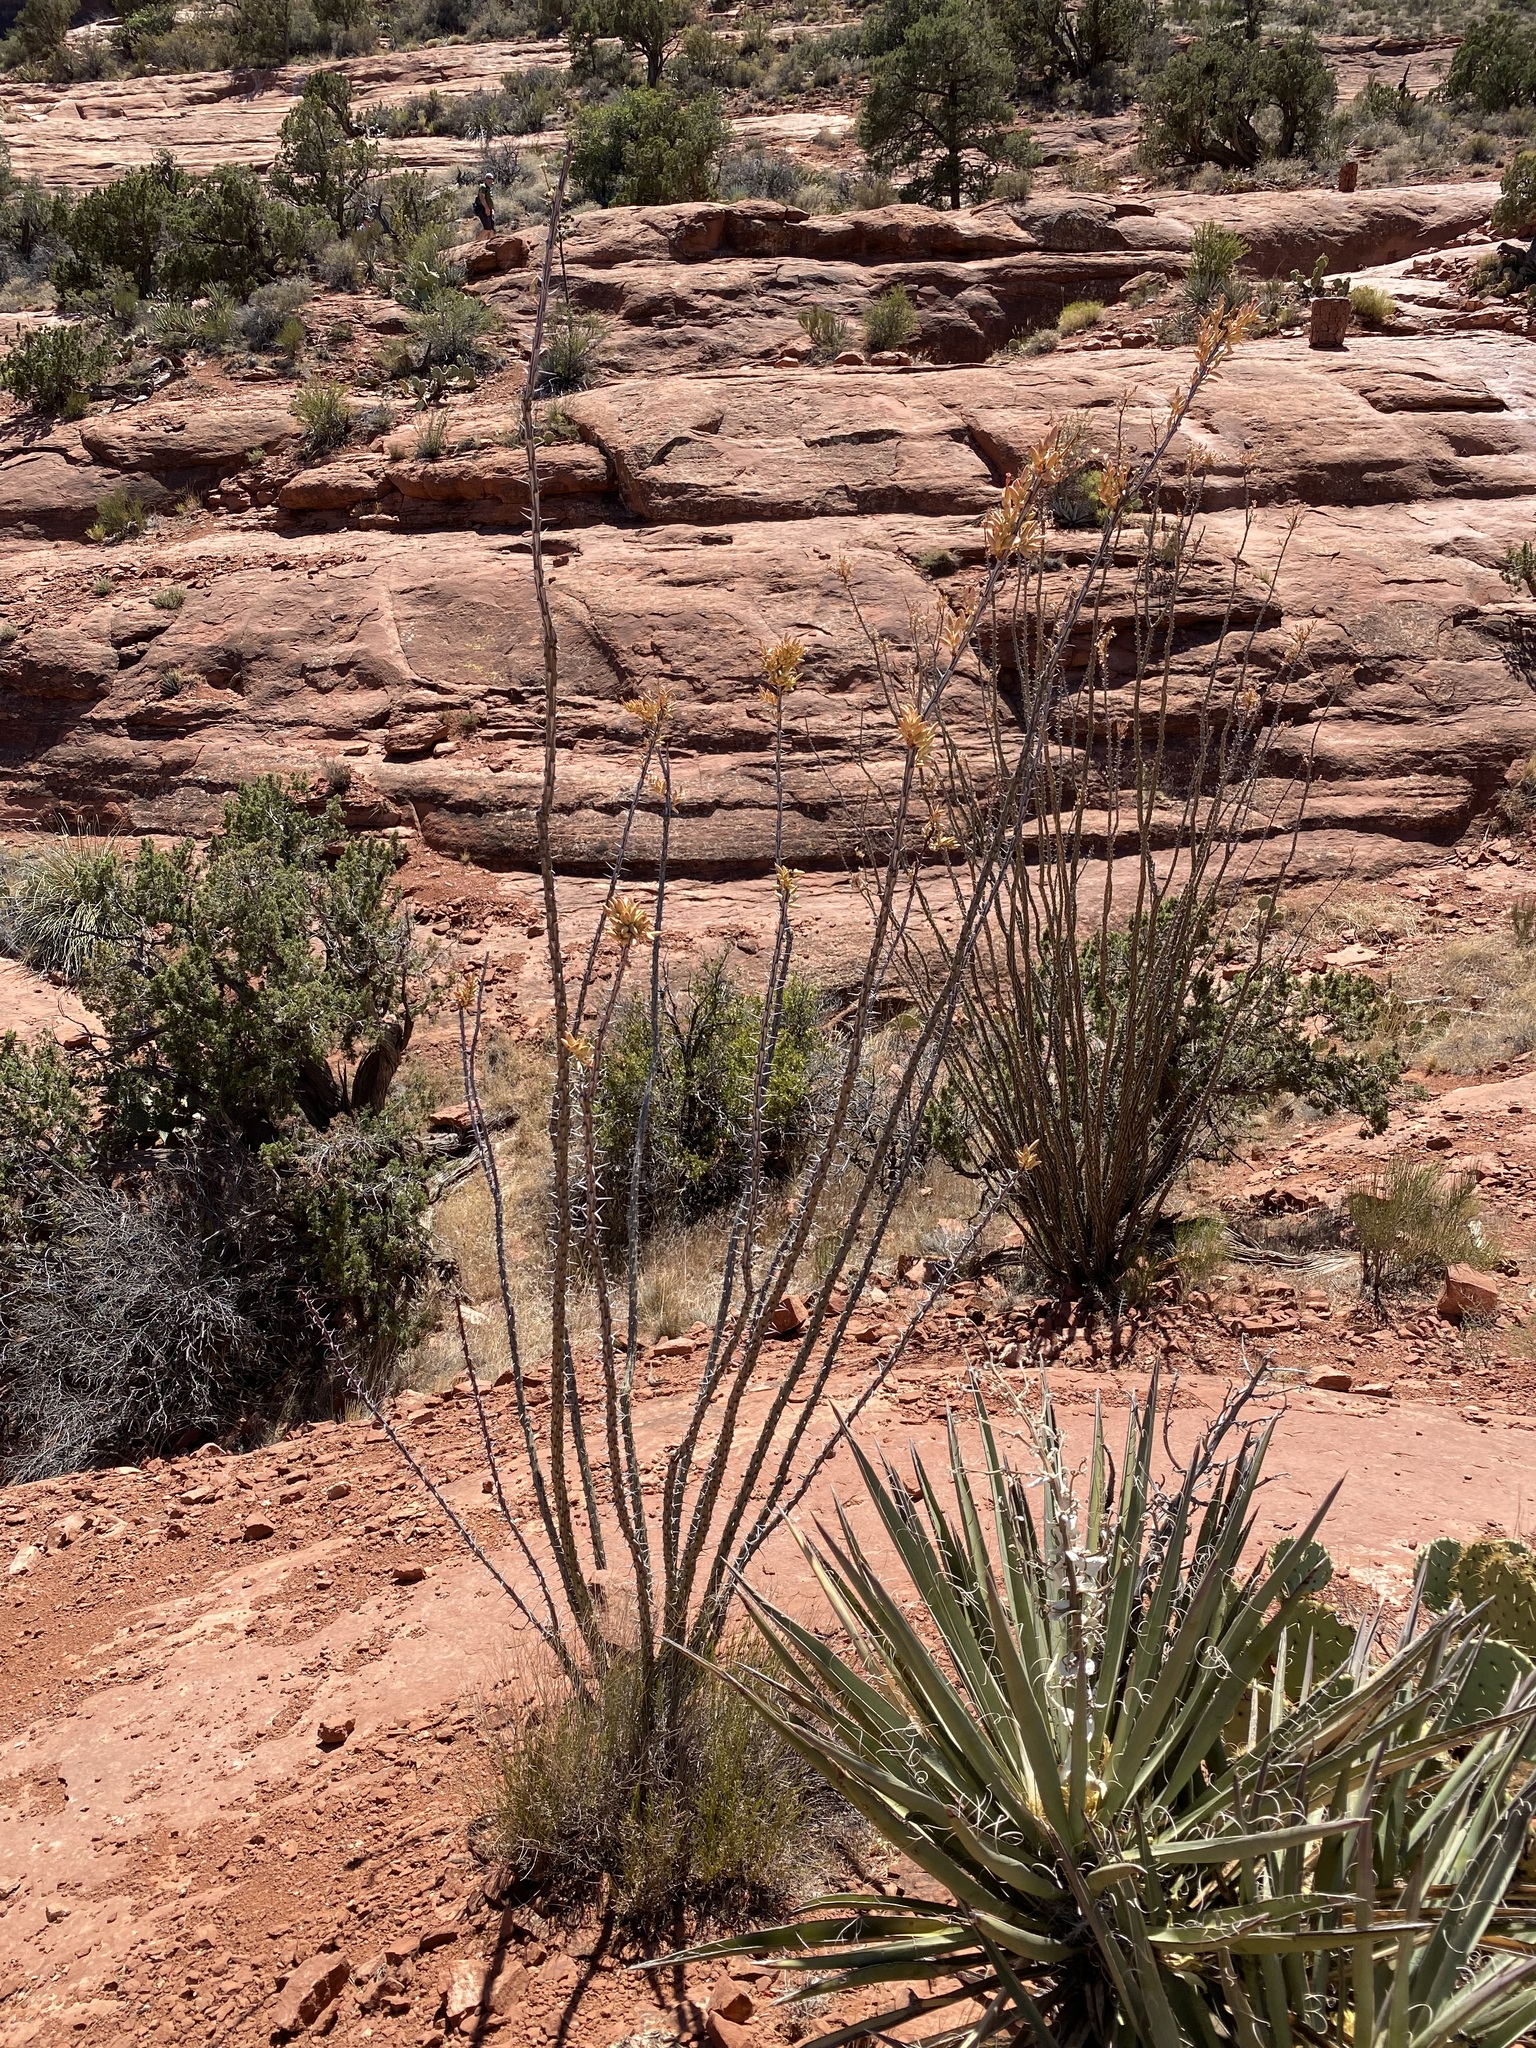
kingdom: Plantae
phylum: Tracheophyta
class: Magnoliopsida
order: Ericales
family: Fouquieriaceae
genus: Fouquieria
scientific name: Fouquieria splendens
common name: Vine-cactus
